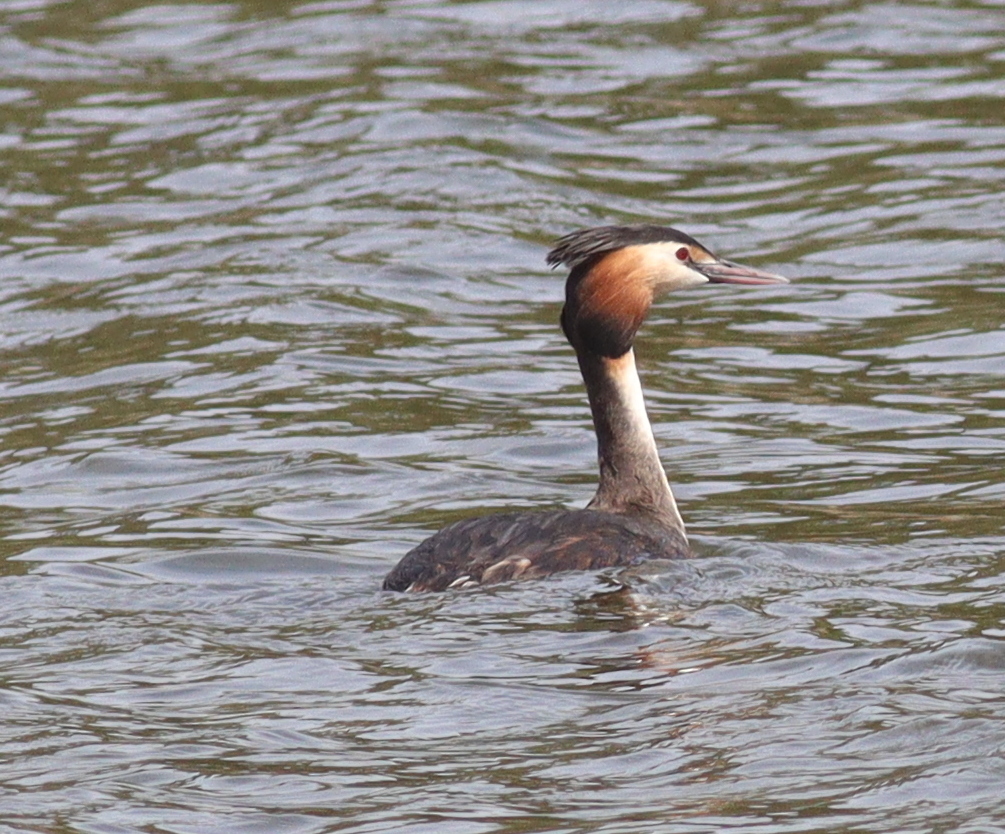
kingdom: Animalia
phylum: Chordata
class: Aves
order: Podicipediformes
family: Podicipedidae
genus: Podiceps
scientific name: Podiceps cristatus
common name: Great crested grebe
